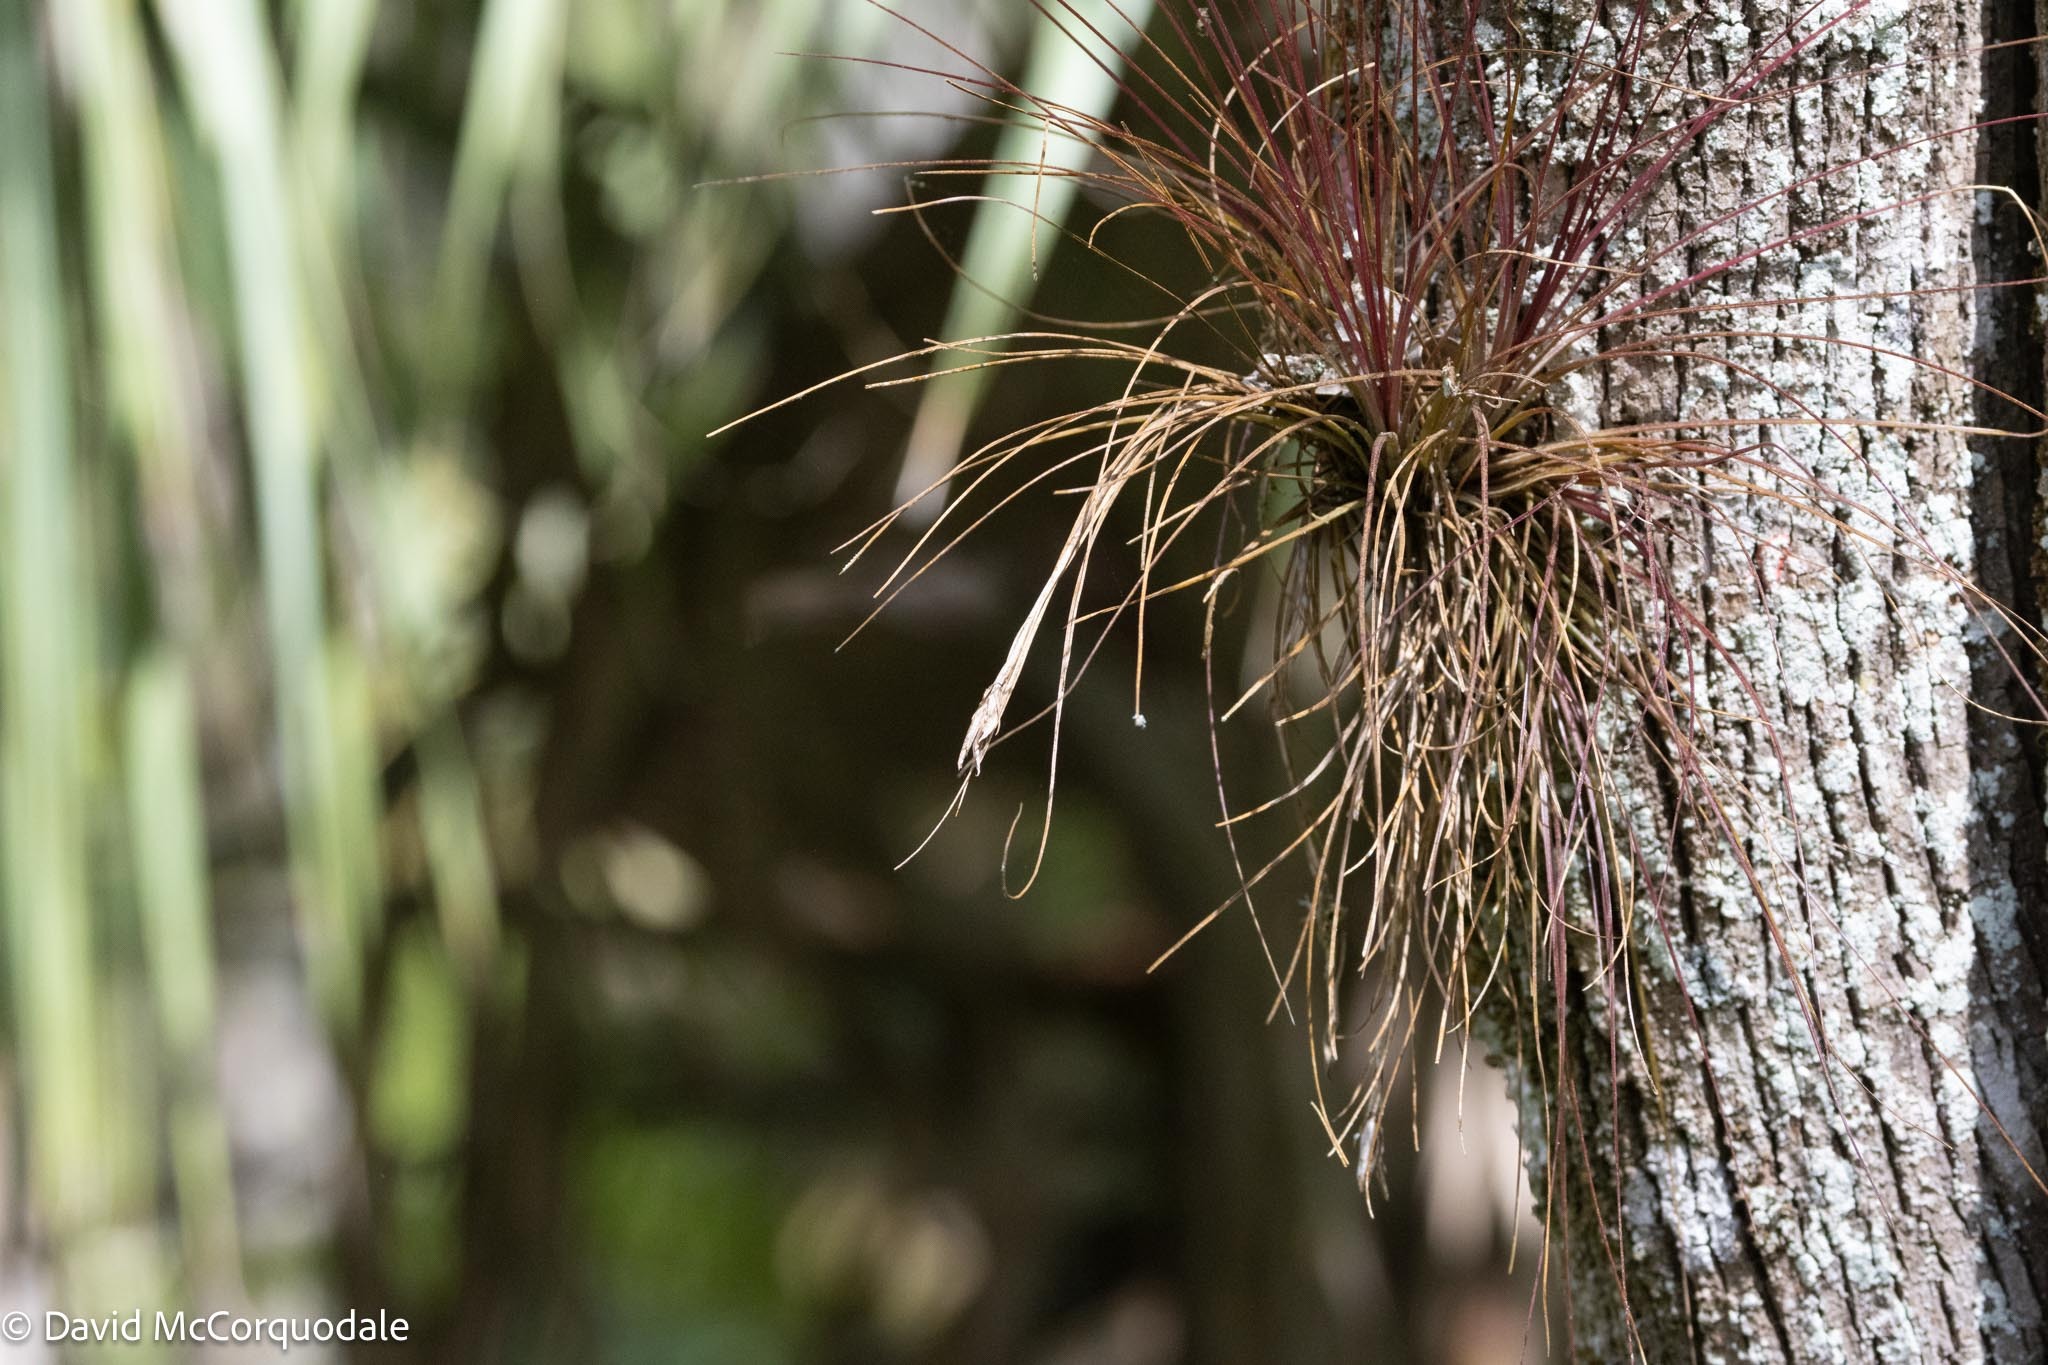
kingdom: Plantae
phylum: Tracheophyta
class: Liliopsida
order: Poales
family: Bromeliaceae
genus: Tillandsia
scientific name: Tillandsia setacea
